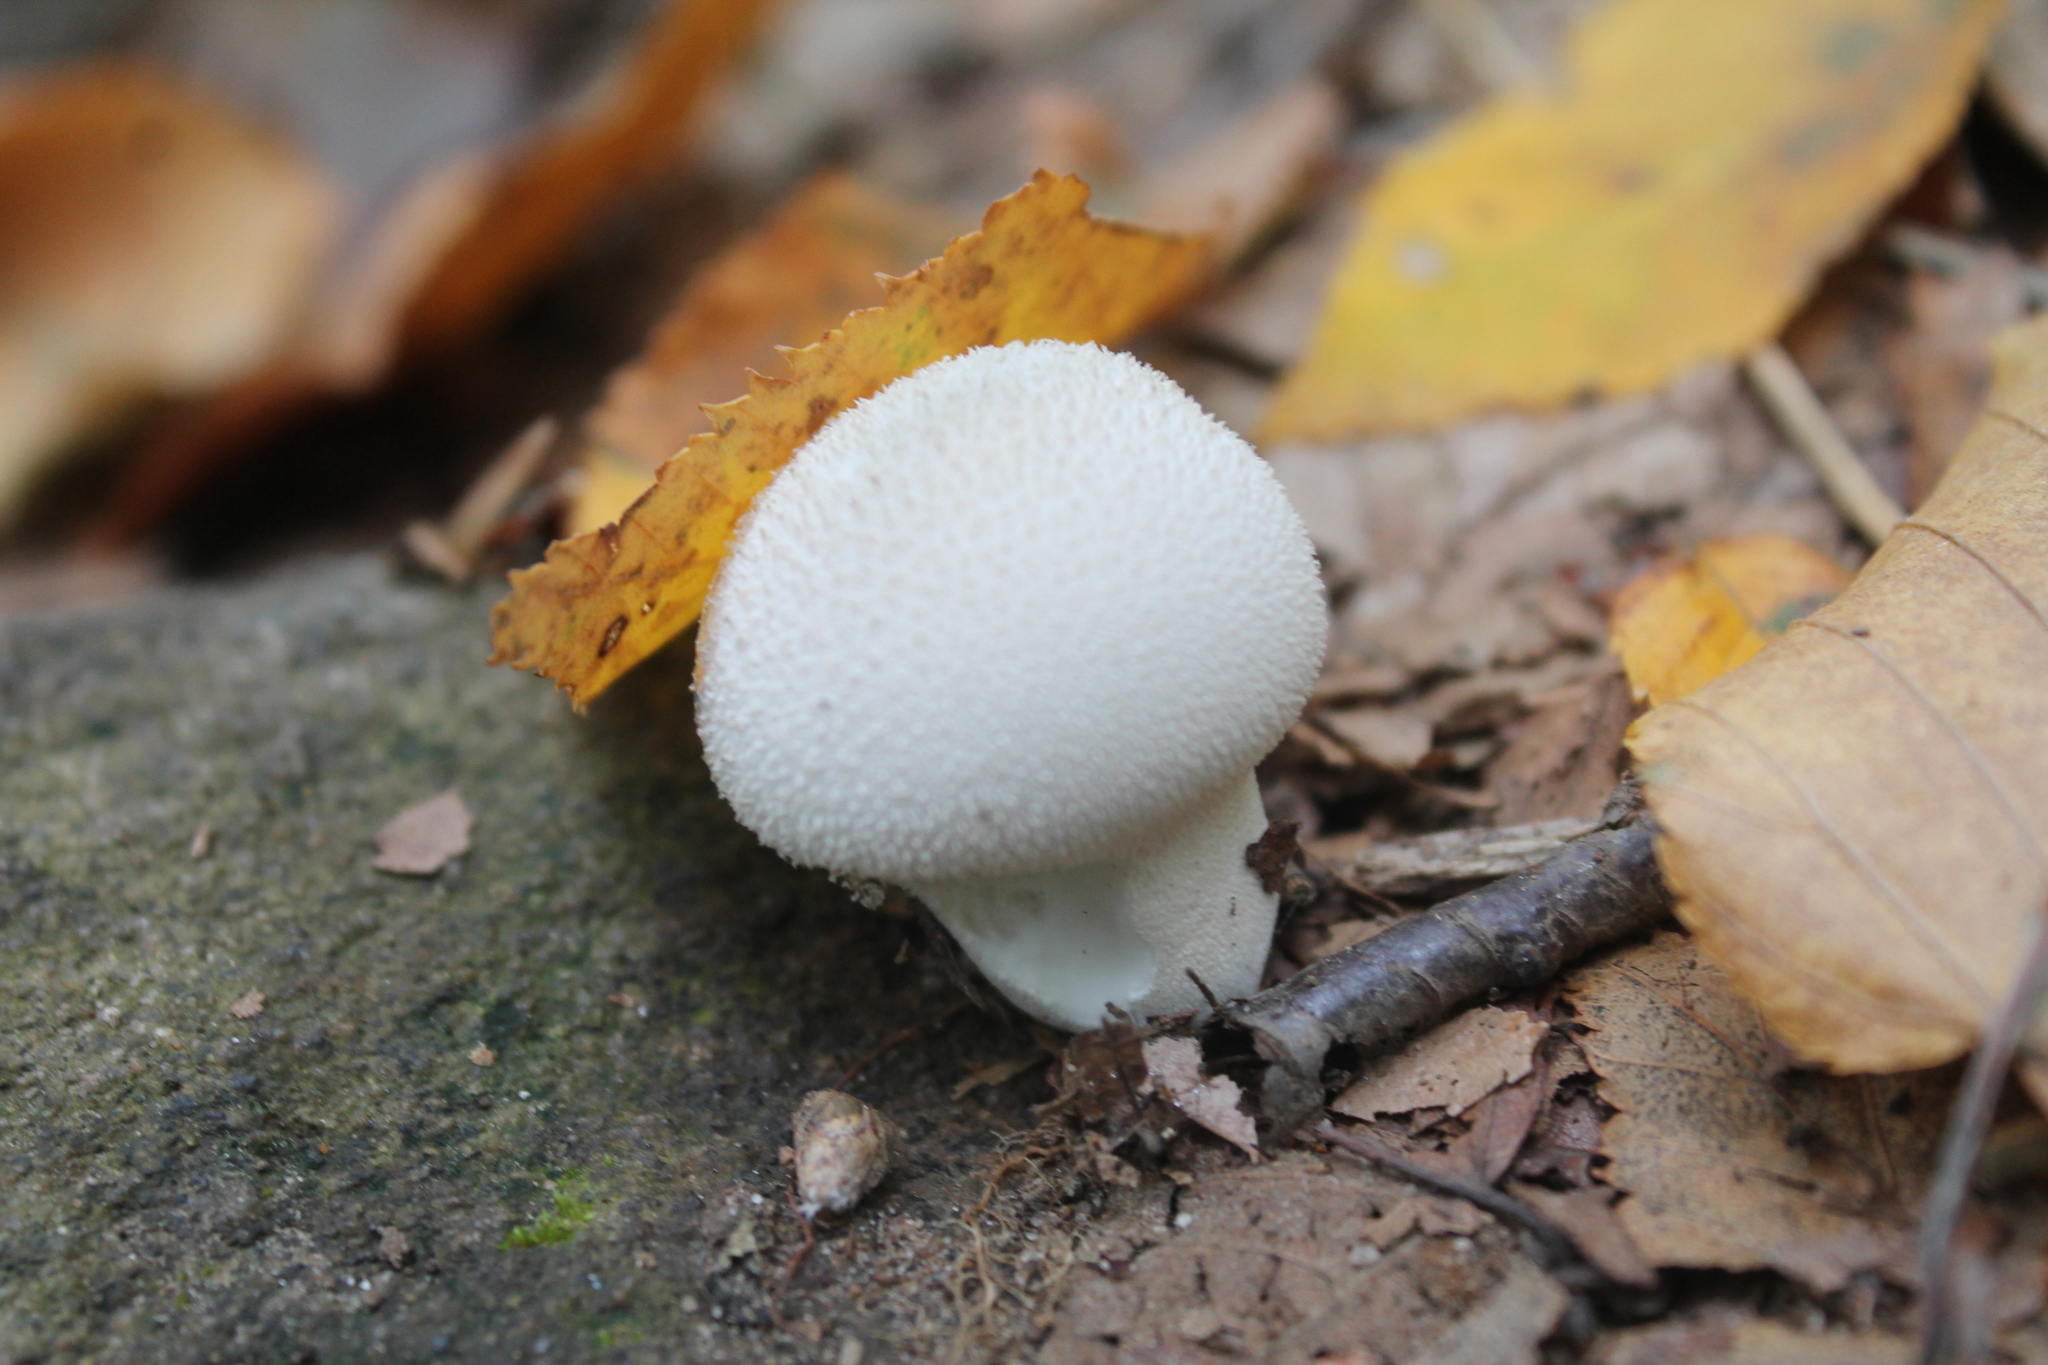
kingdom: Fungi
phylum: Basidiomycota
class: Agaricomycetes
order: Agaricales
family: Lycoperdaceae
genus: Lycoperdon
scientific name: Lycoperdon perlatum
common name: Common puffball
